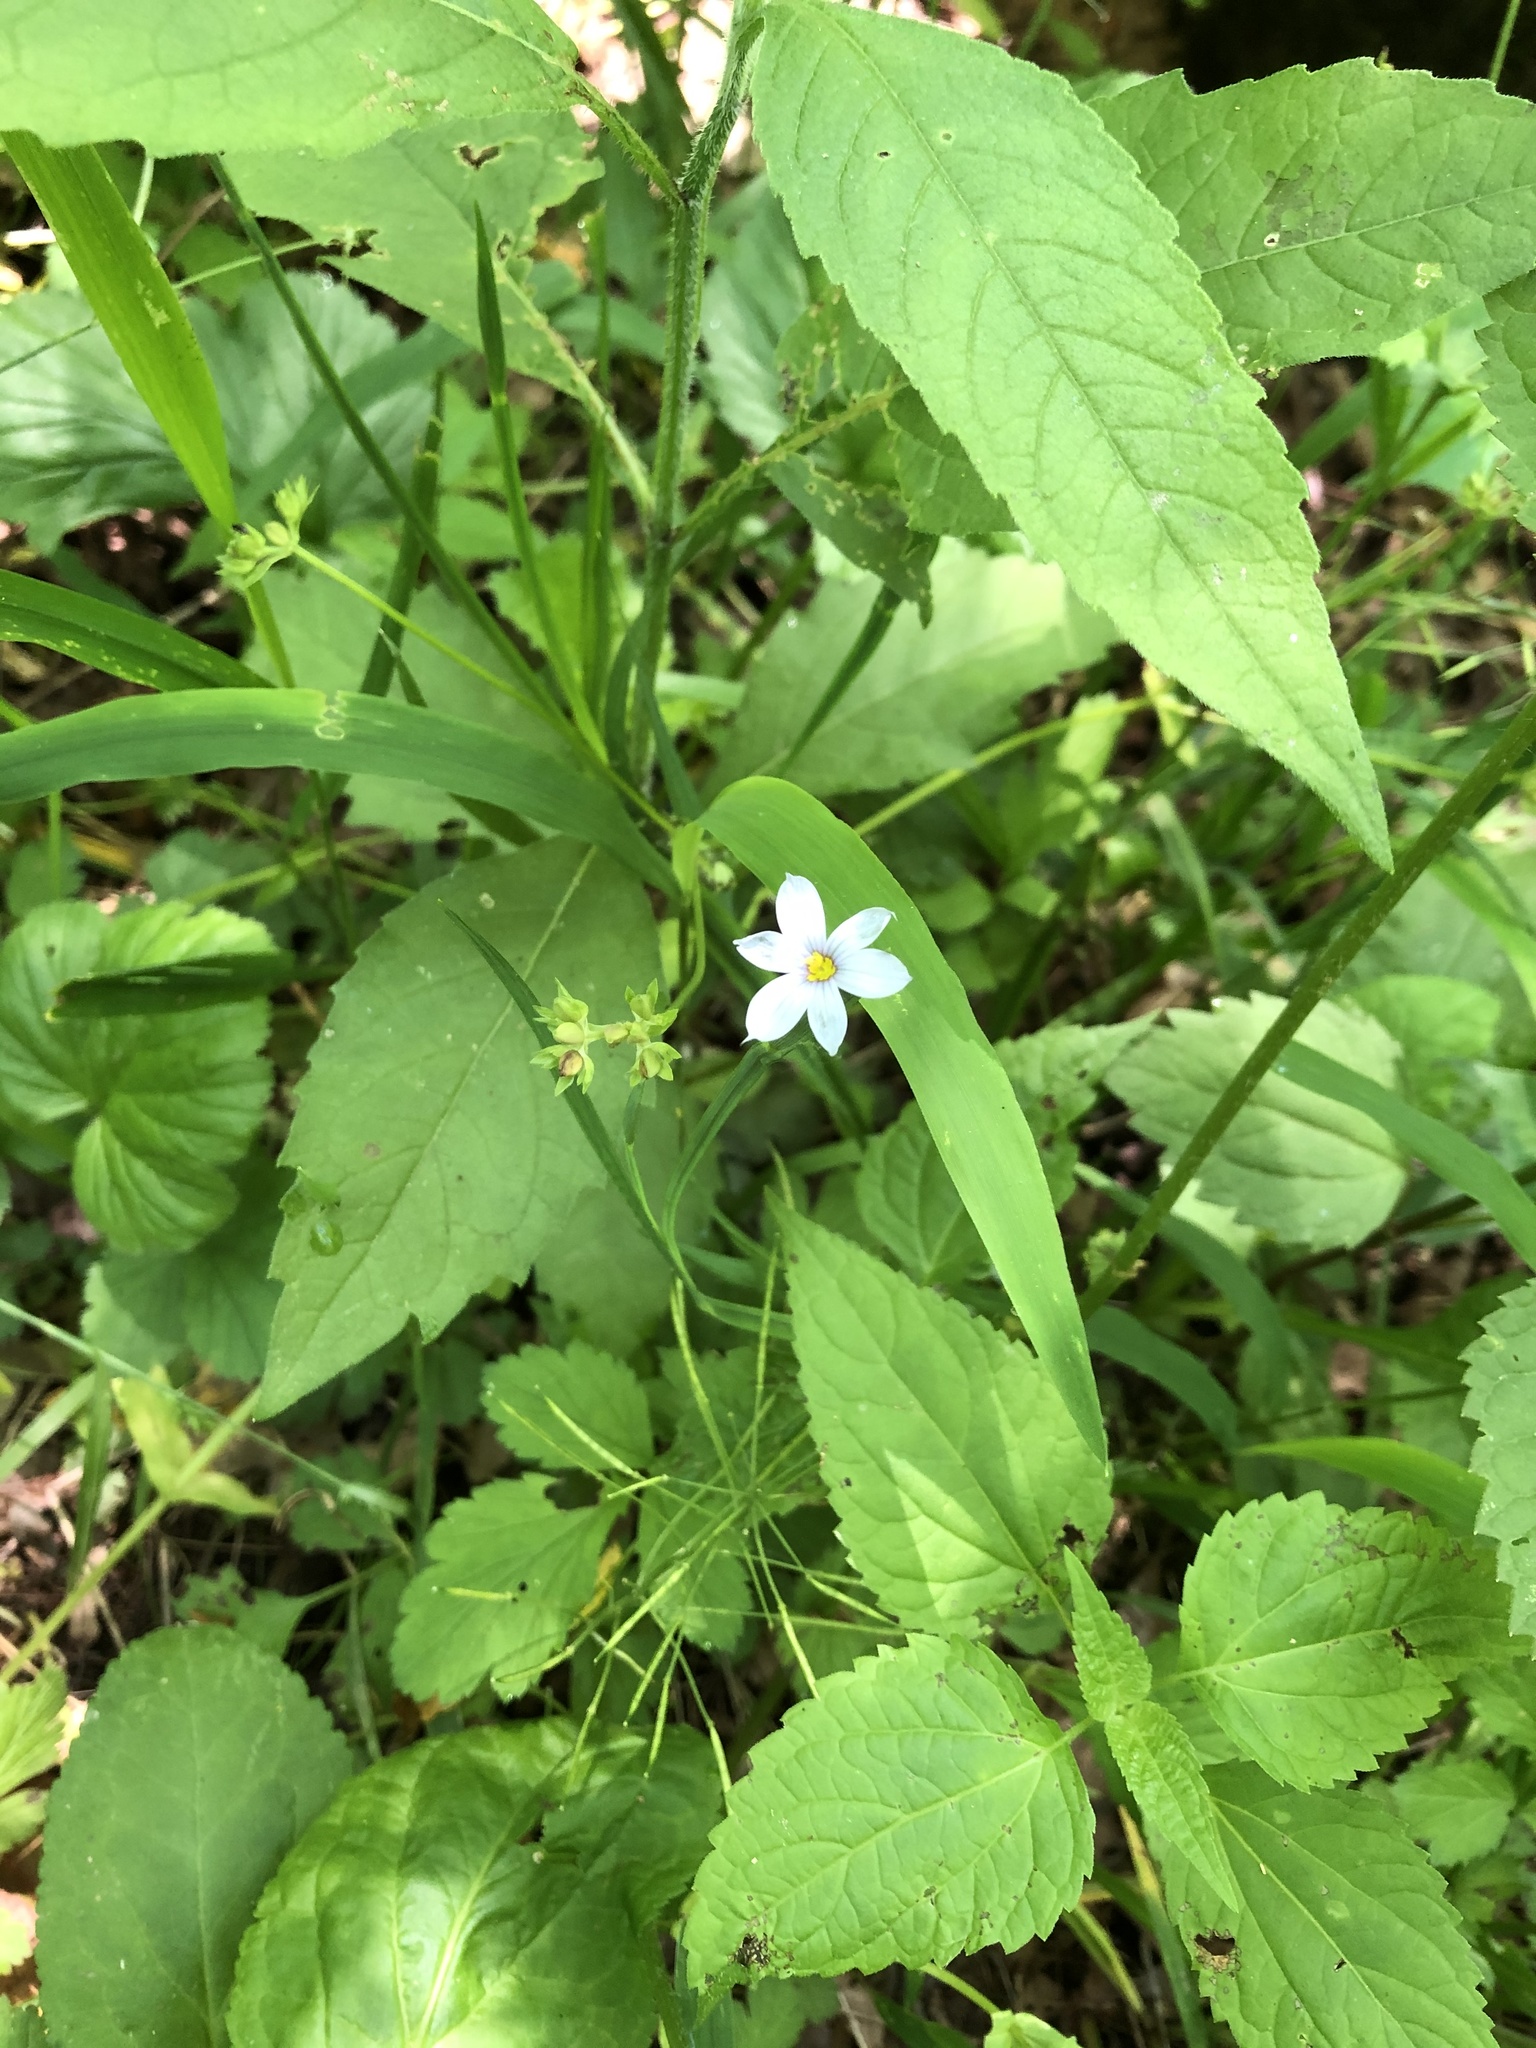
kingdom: Plantae
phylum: Tracheophyta
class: Liliopsida
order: Asparagales
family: Iridaceae
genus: Sisyrinchium
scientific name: Sisyrinchium atlanticum
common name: Eastern blue-eyed-grass
